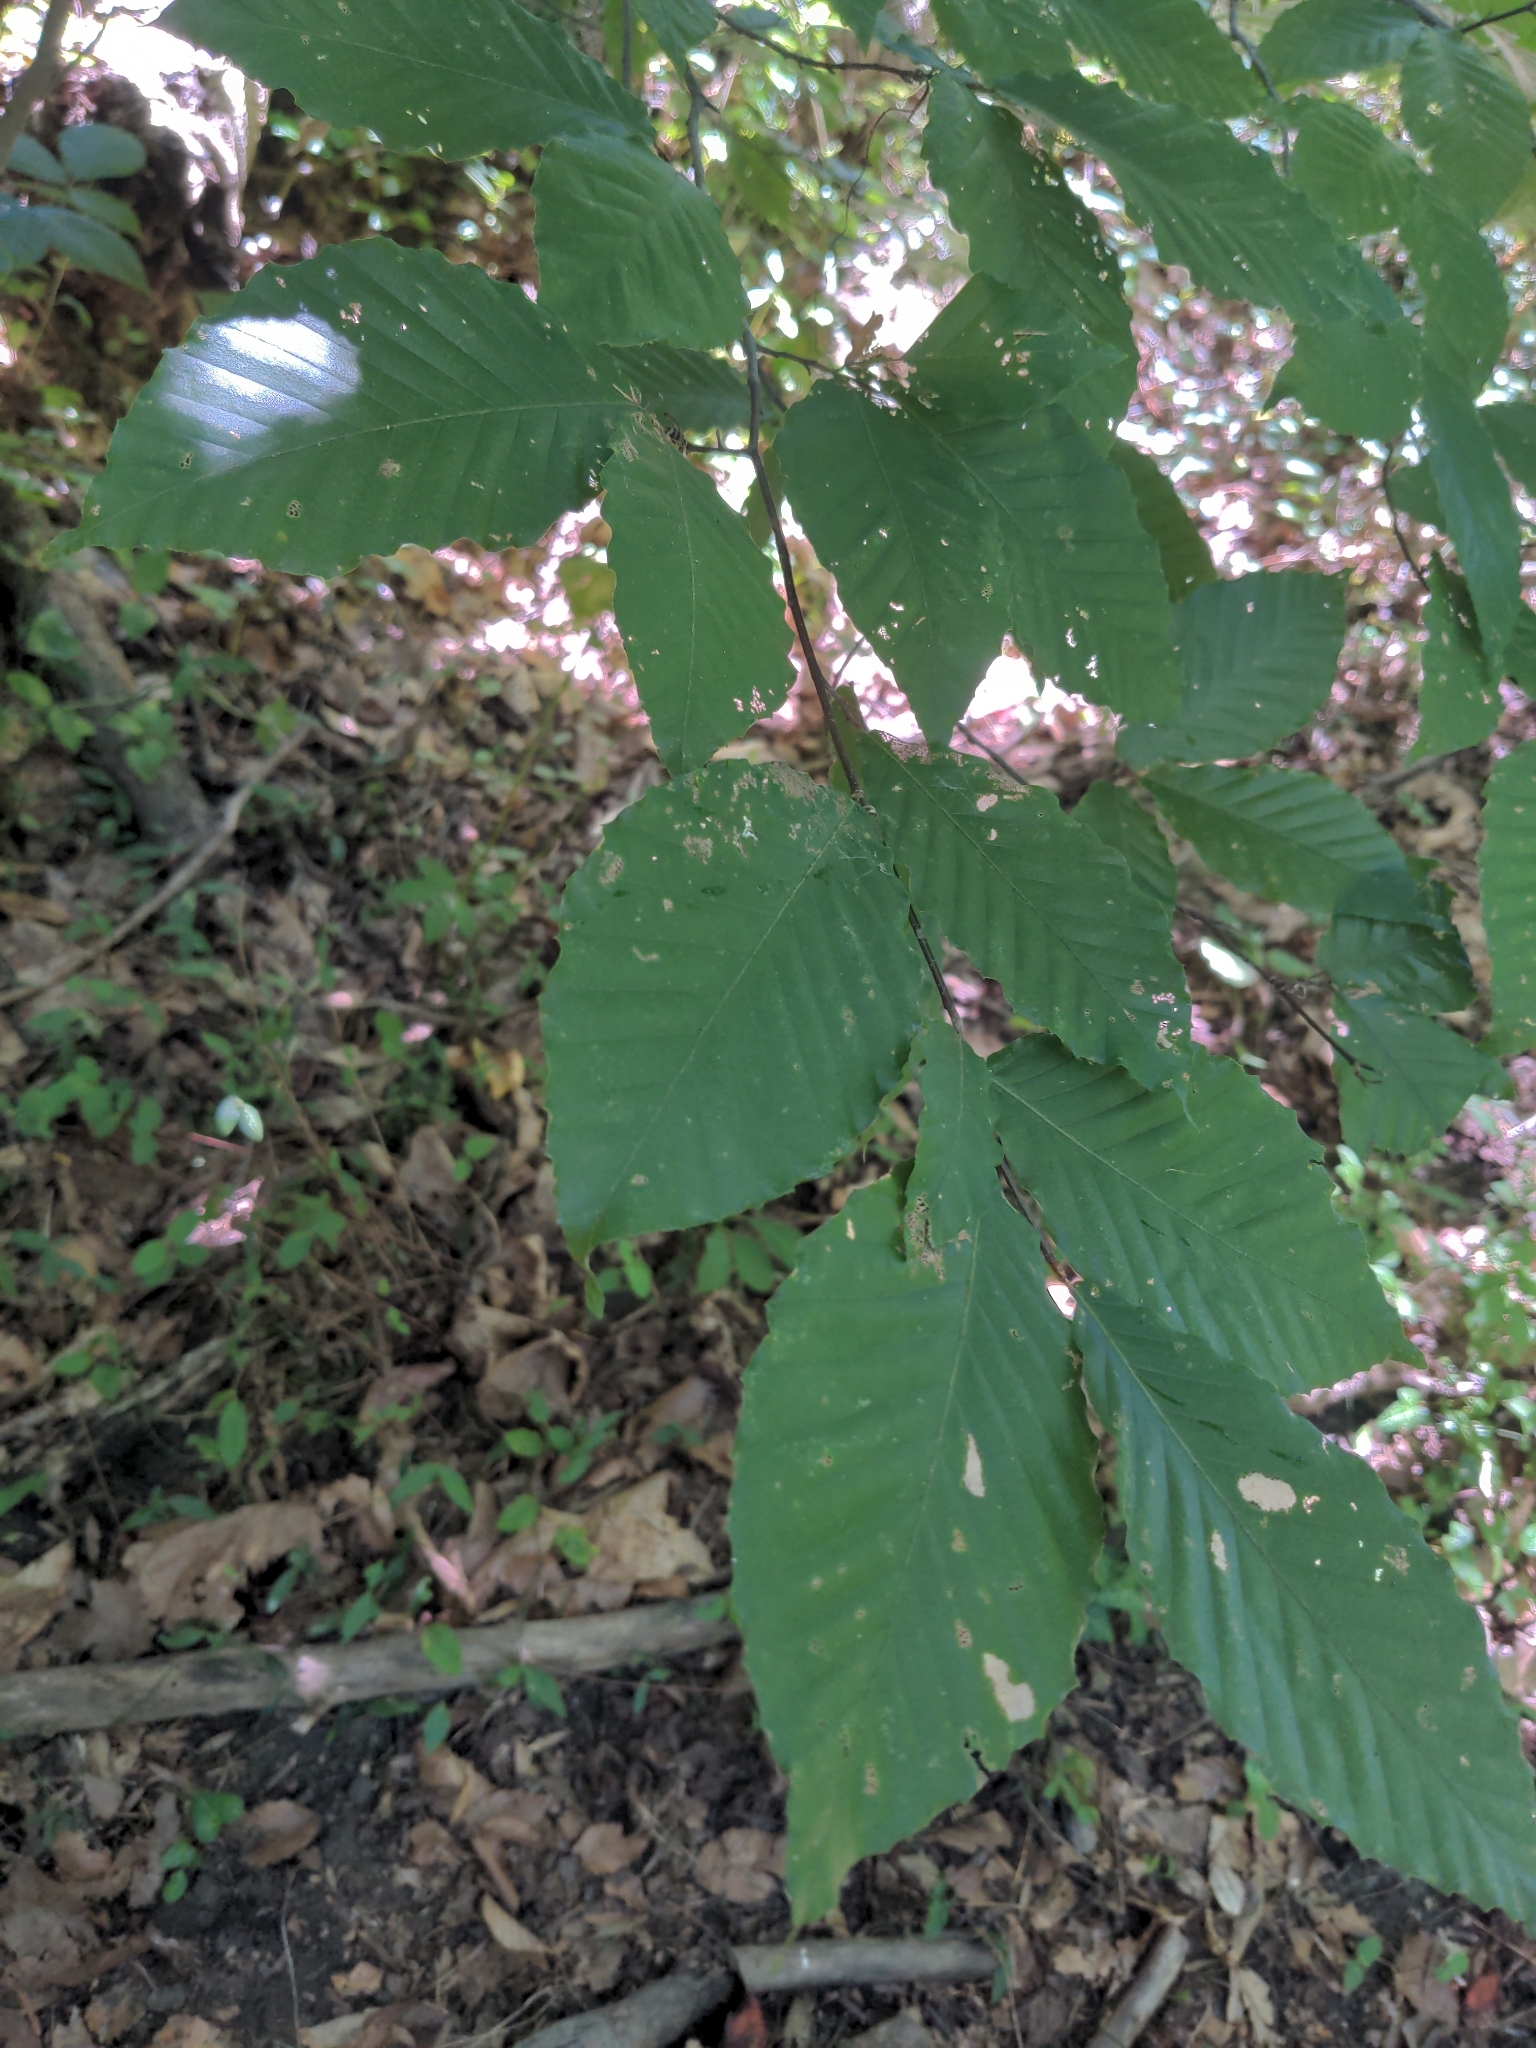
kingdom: Plantae
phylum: Tracheophyta
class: Magnoliopsida
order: Fagales
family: Fagaceae
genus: Fagus
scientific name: Fagus grandifolia
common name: American beech
